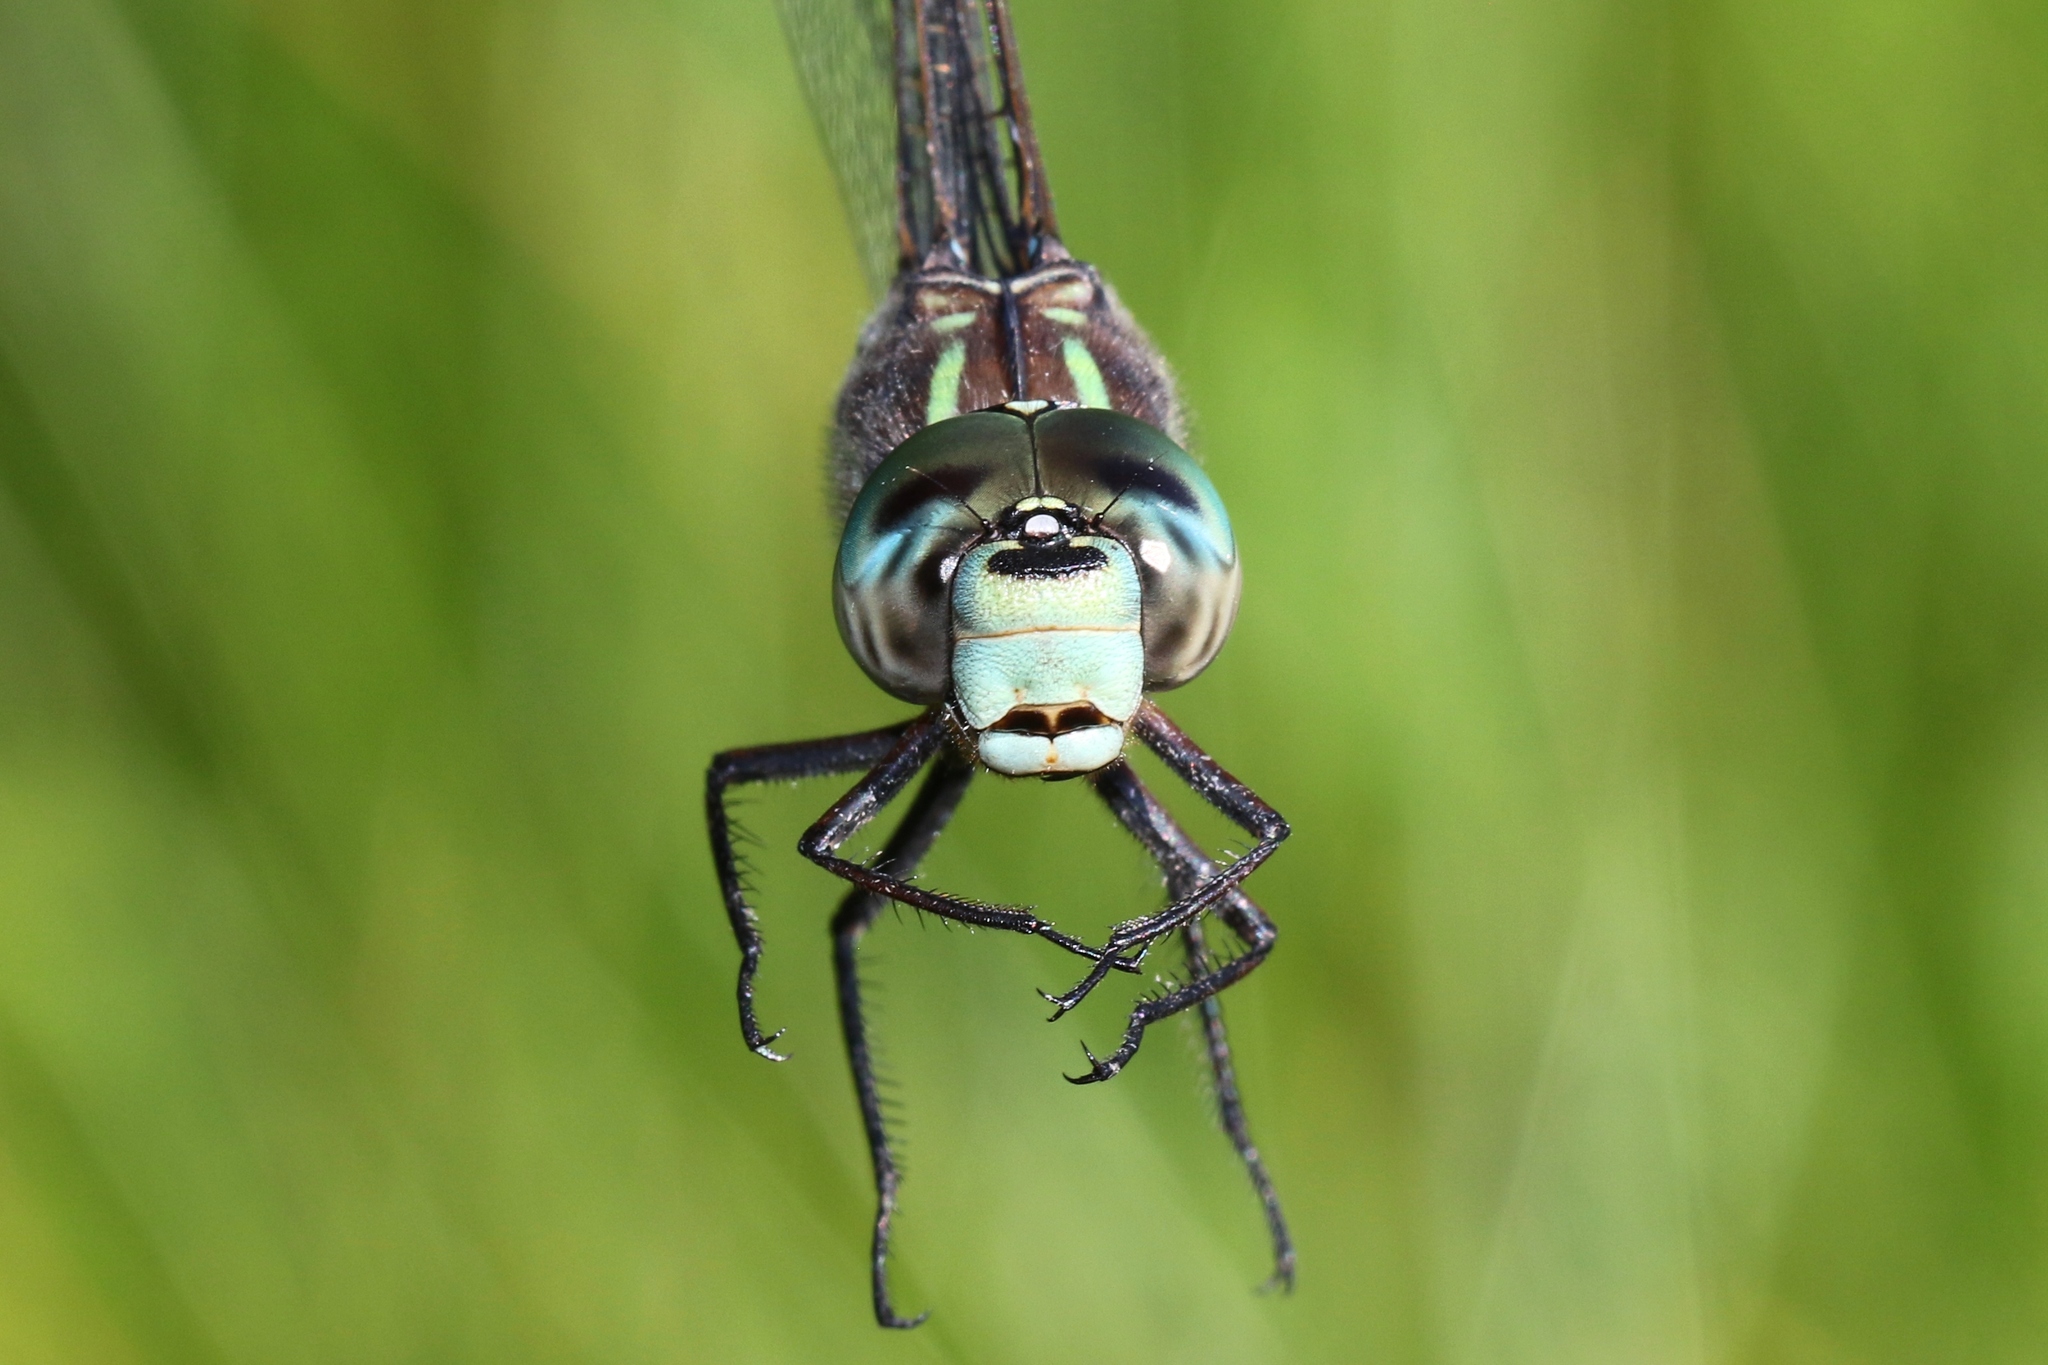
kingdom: Animalia
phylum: Arthropoda
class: Insecta
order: Odonata
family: Aeshnidae
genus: Aeshna
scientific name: Aeshna canadensis
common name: Canada darner
